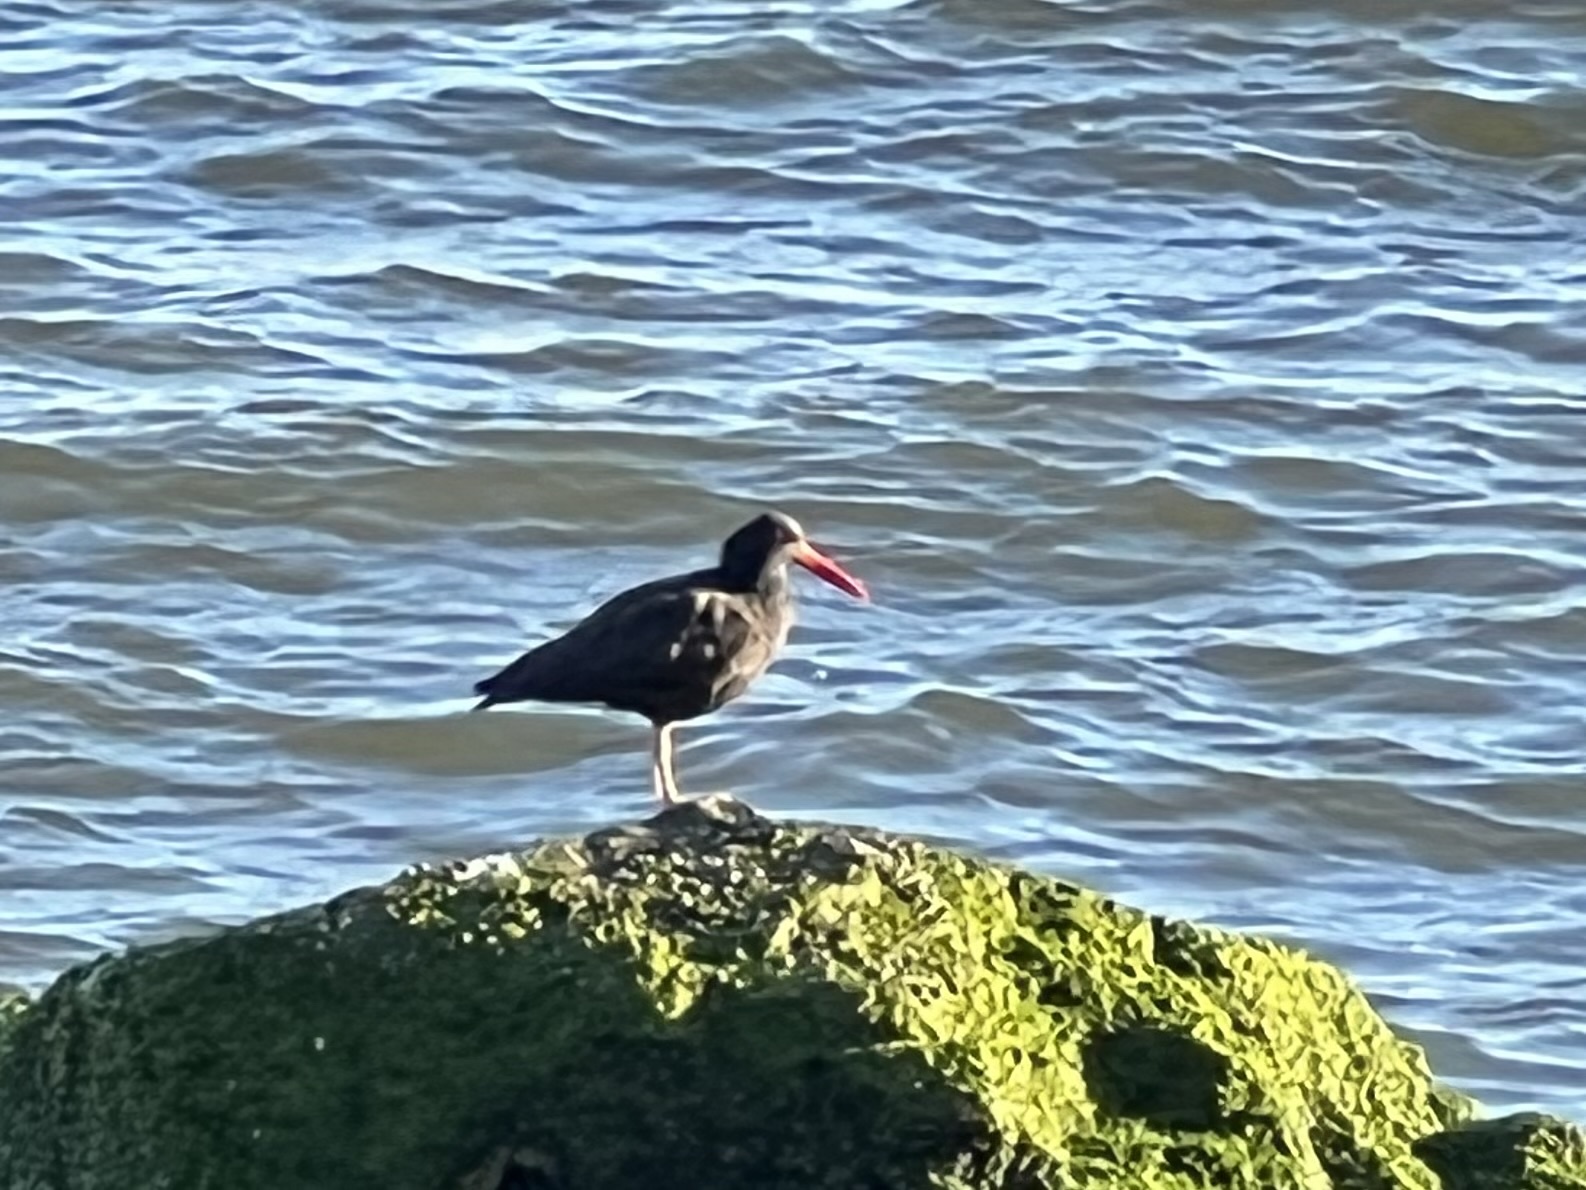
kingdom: Animalia
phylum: Chordata
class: Aves
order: Charadriiformes
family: Haematopodidae
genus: Haematopus
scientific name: Haematopus bachmani
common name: Black oystercatcher
